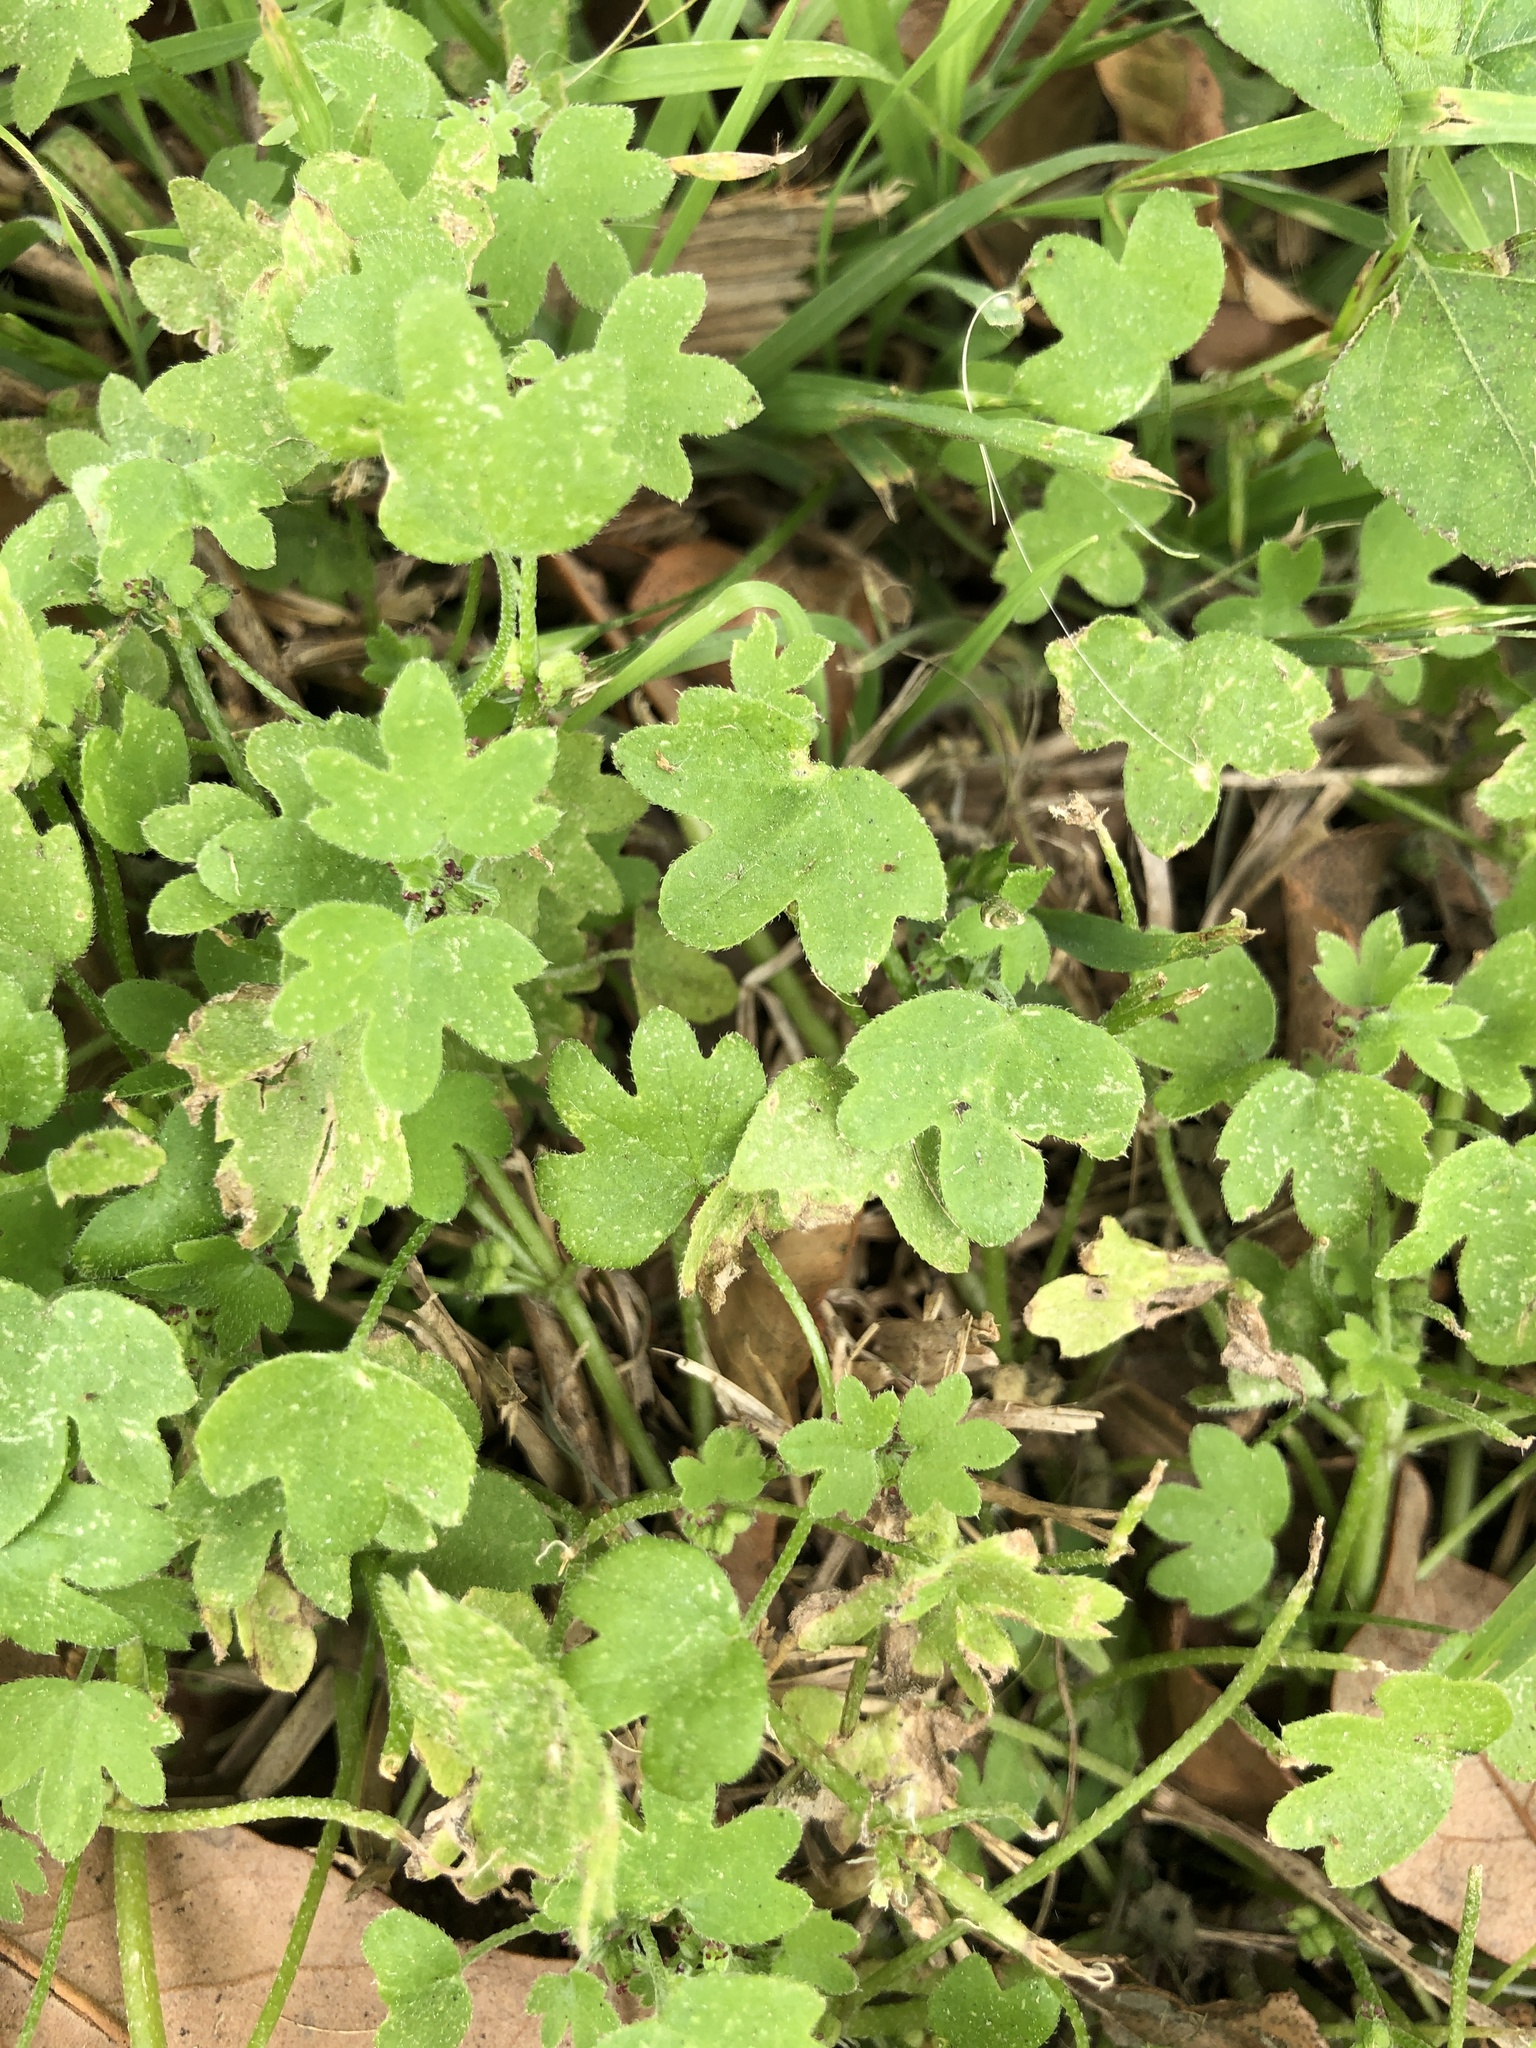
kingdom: Plantae
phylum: Tracheophyta
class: Magnoliopsida
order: Apiales
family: Apiaceae
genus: Bowlesia
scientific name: Bowlesia incana
